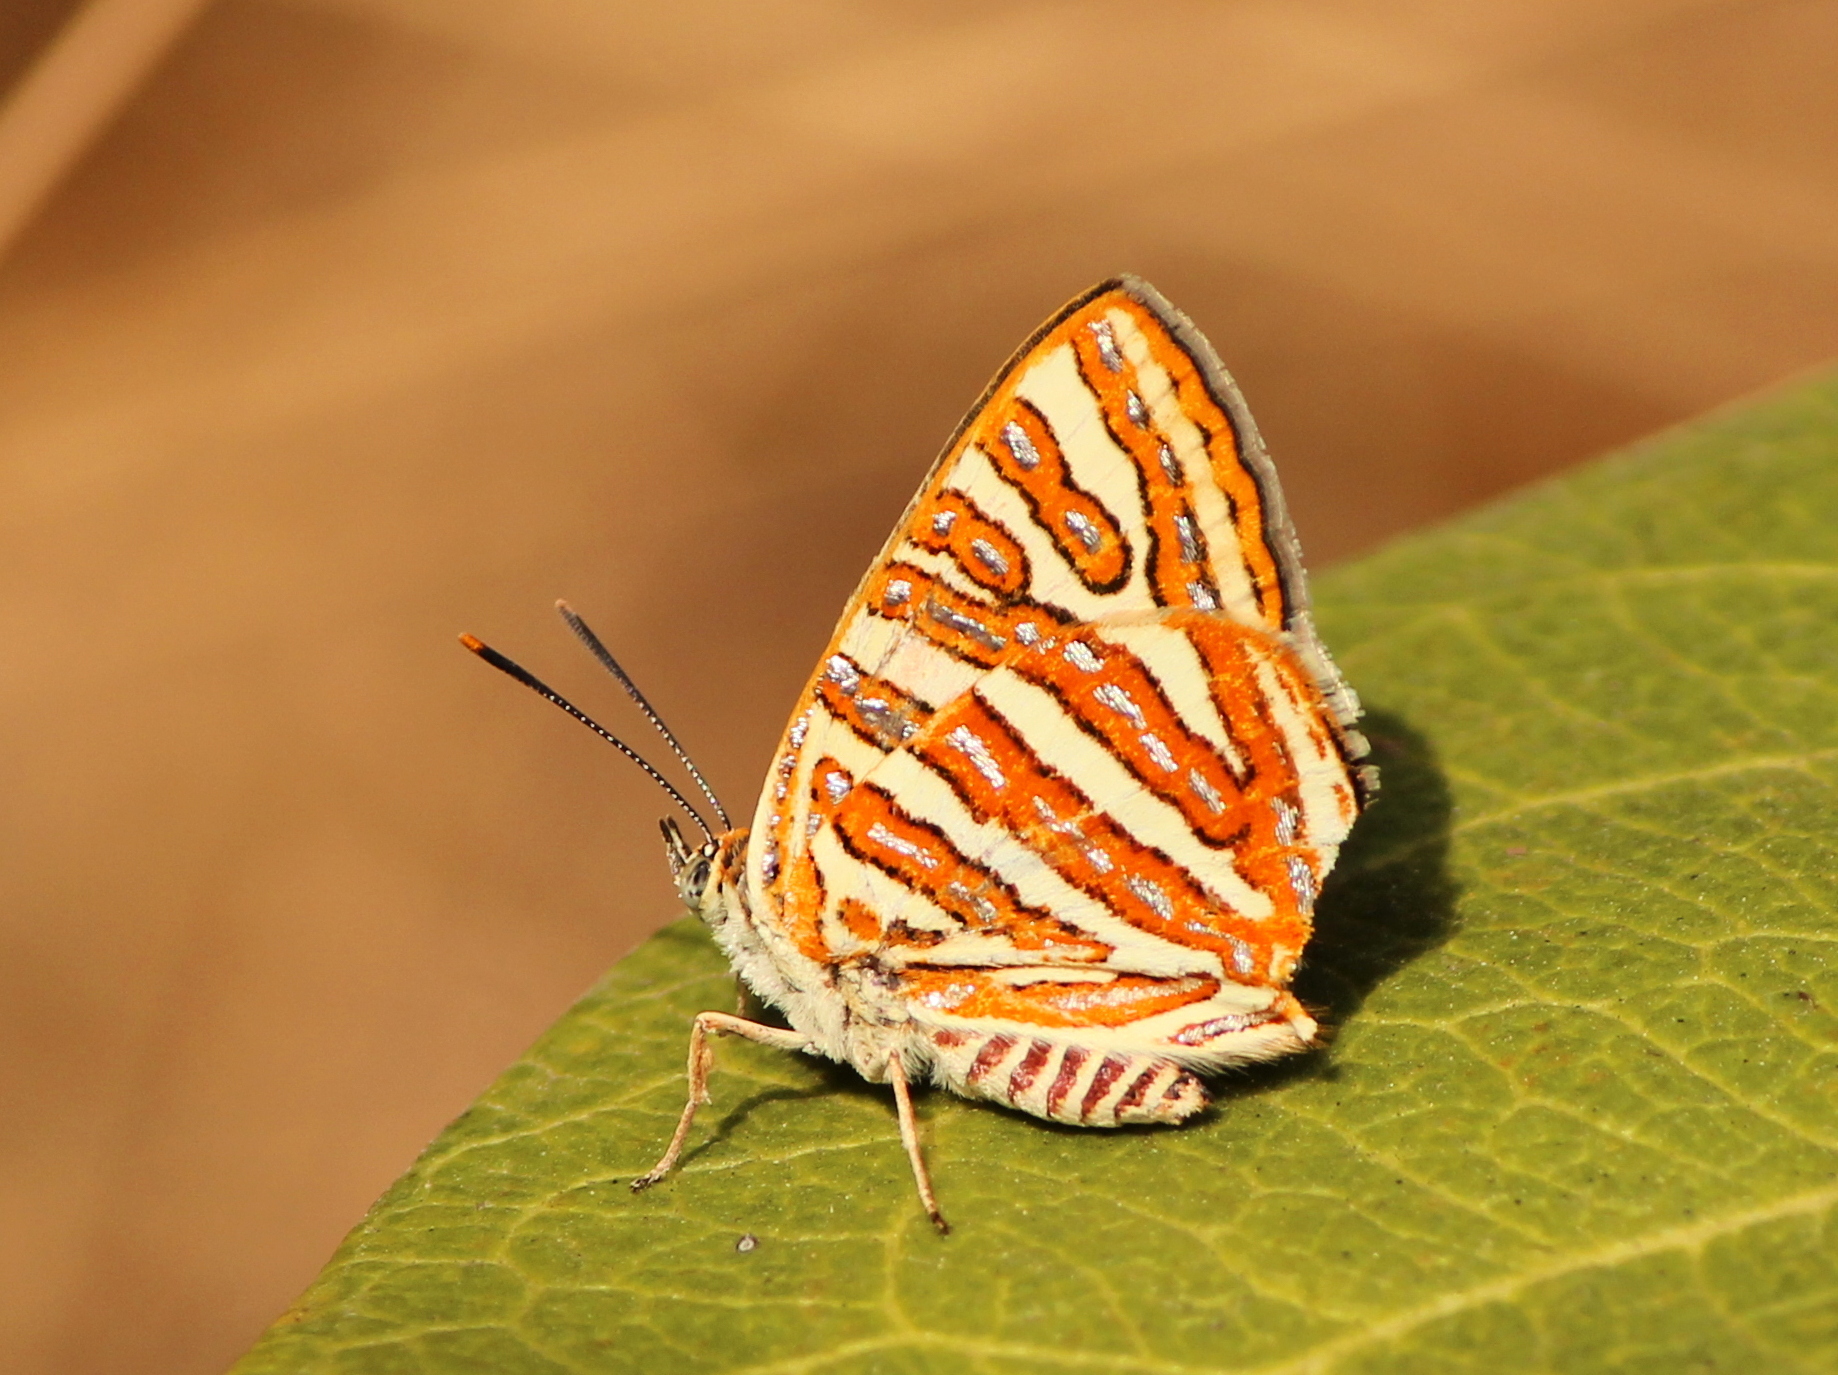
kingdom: Animalia
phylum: Arthropoda
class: Insecta
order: Lepidoptera
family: Lycaenidae
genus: Cigaritis
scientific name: Cigaritis vulcanus
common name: Common silverline
